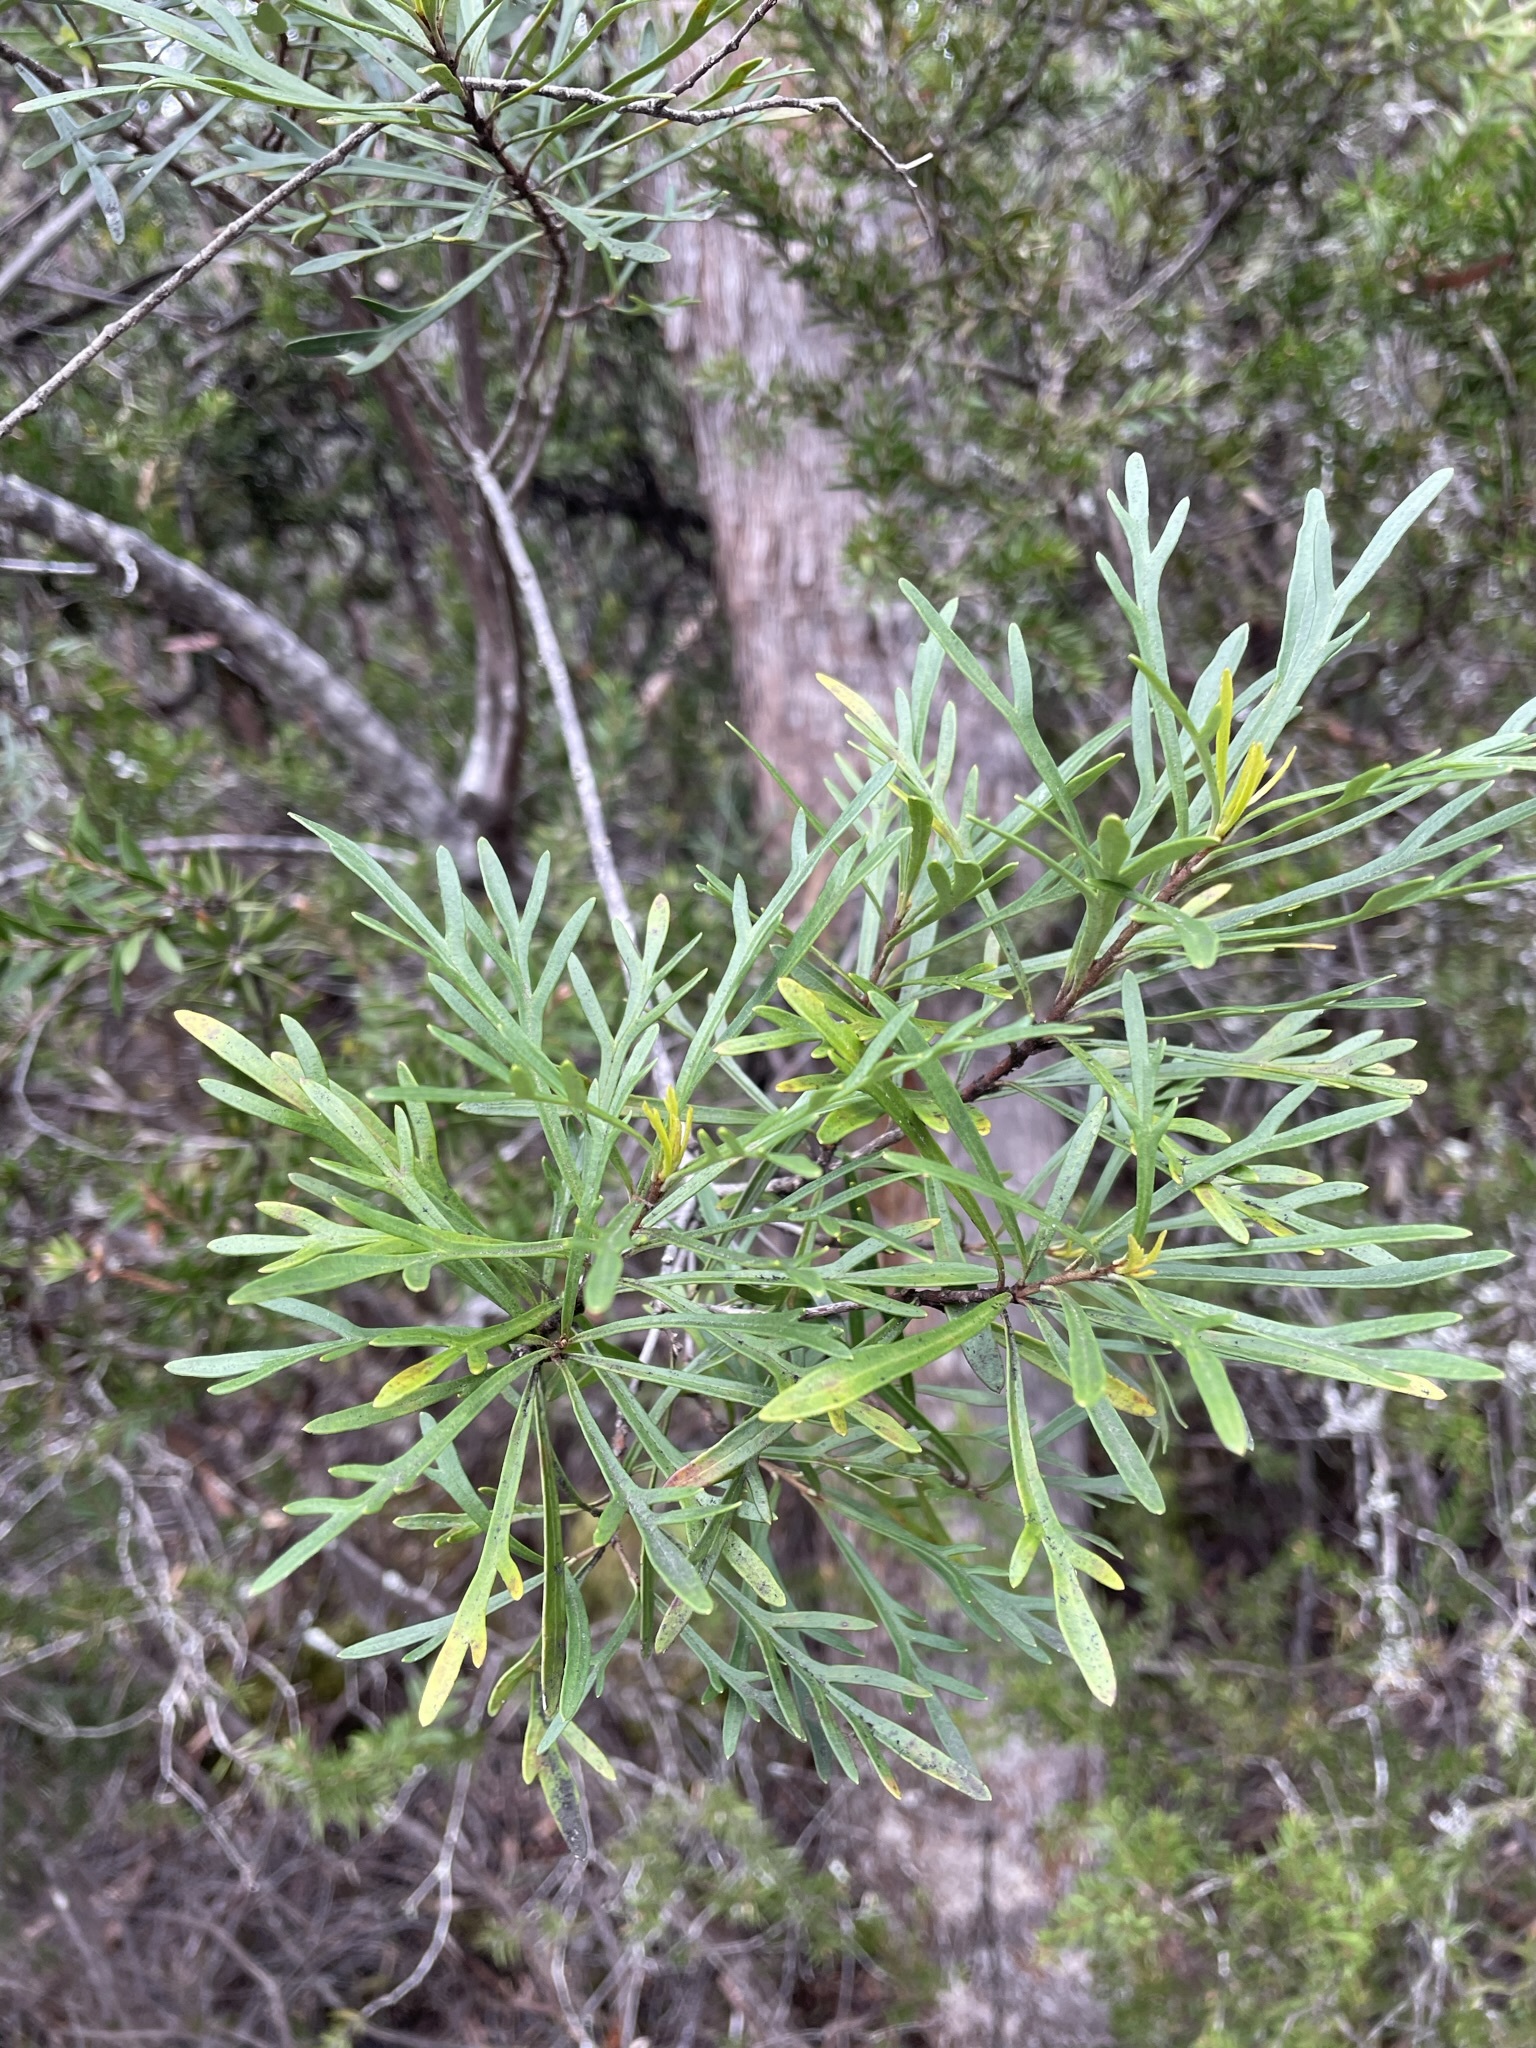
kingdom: Plantae
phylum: Tracheophyta
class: Magnoliopsida
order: Proteales
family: Proteaceae
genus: Lomatia
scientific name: Lomatia tinctoria
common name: Guitar plant
